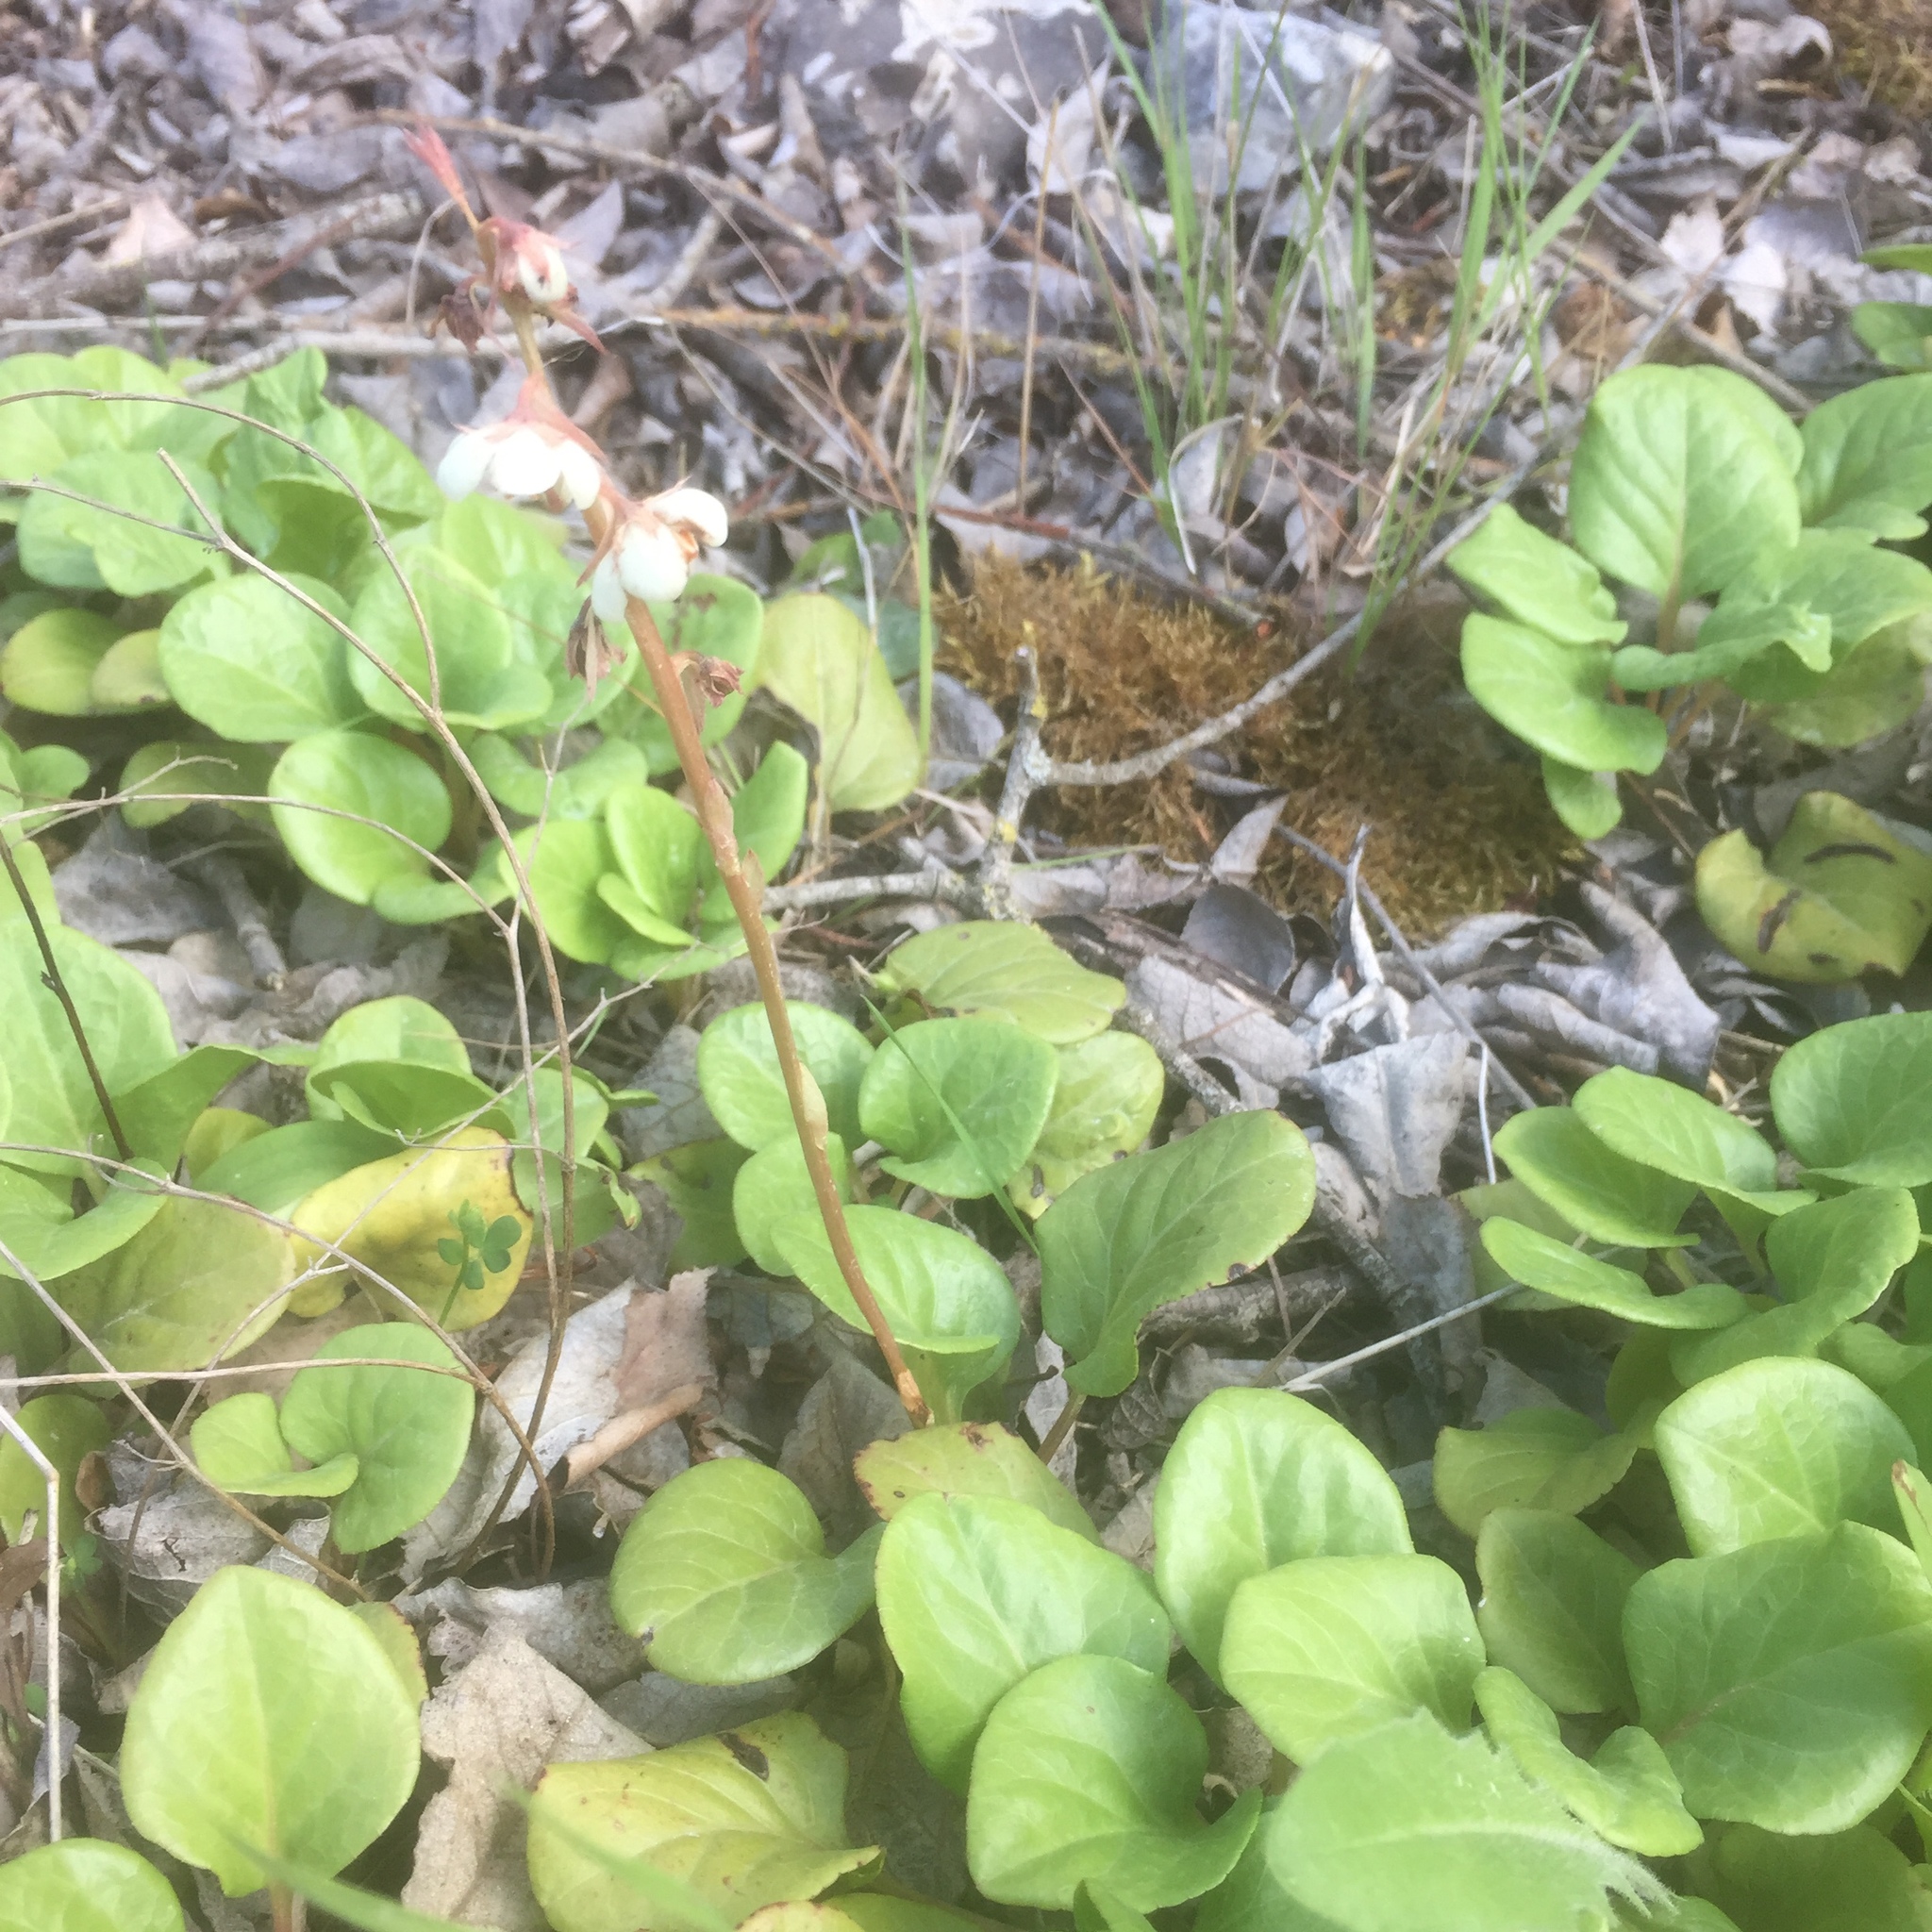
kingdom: Plantae
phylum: Tracheophyta
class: Magnoliopsida
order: Ericales
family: Ericaceae
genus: Pyrola
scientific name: Pyrola rotundifolia
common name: Round-leaved wintergreen
